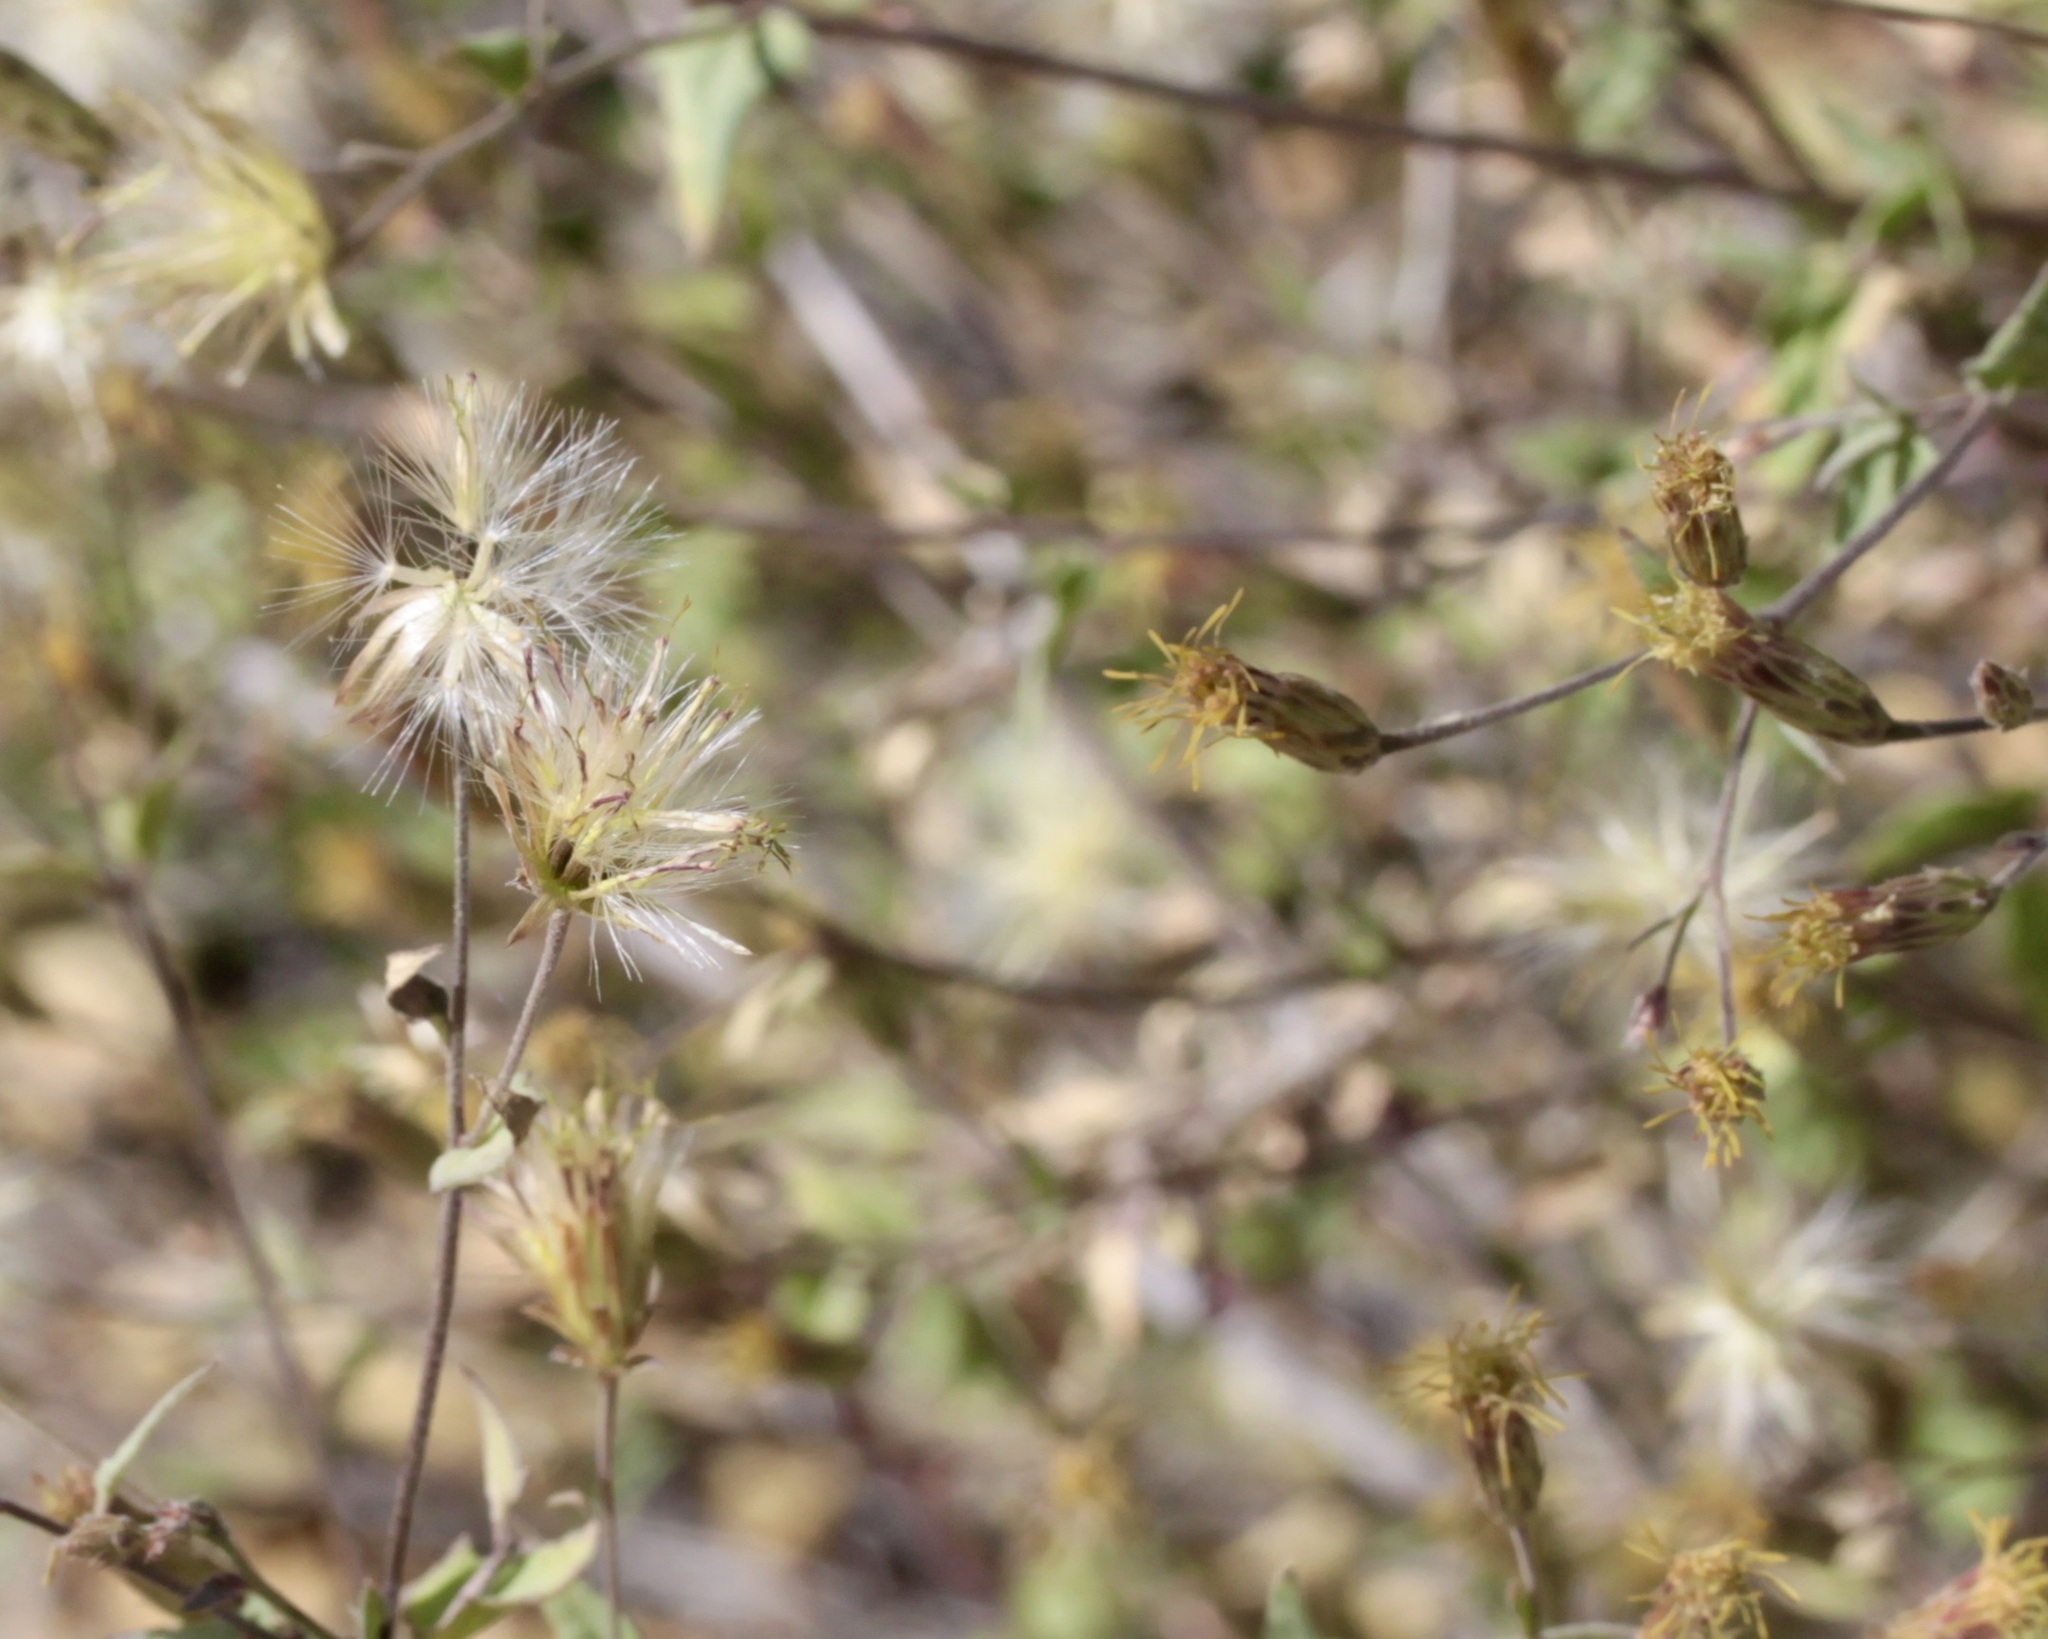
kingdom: Plantae
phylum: Tracheophyta
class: Magnoliopsida
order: Asterales
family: Asteraceae
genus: Brickellia
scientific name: Brickellia coulteri
